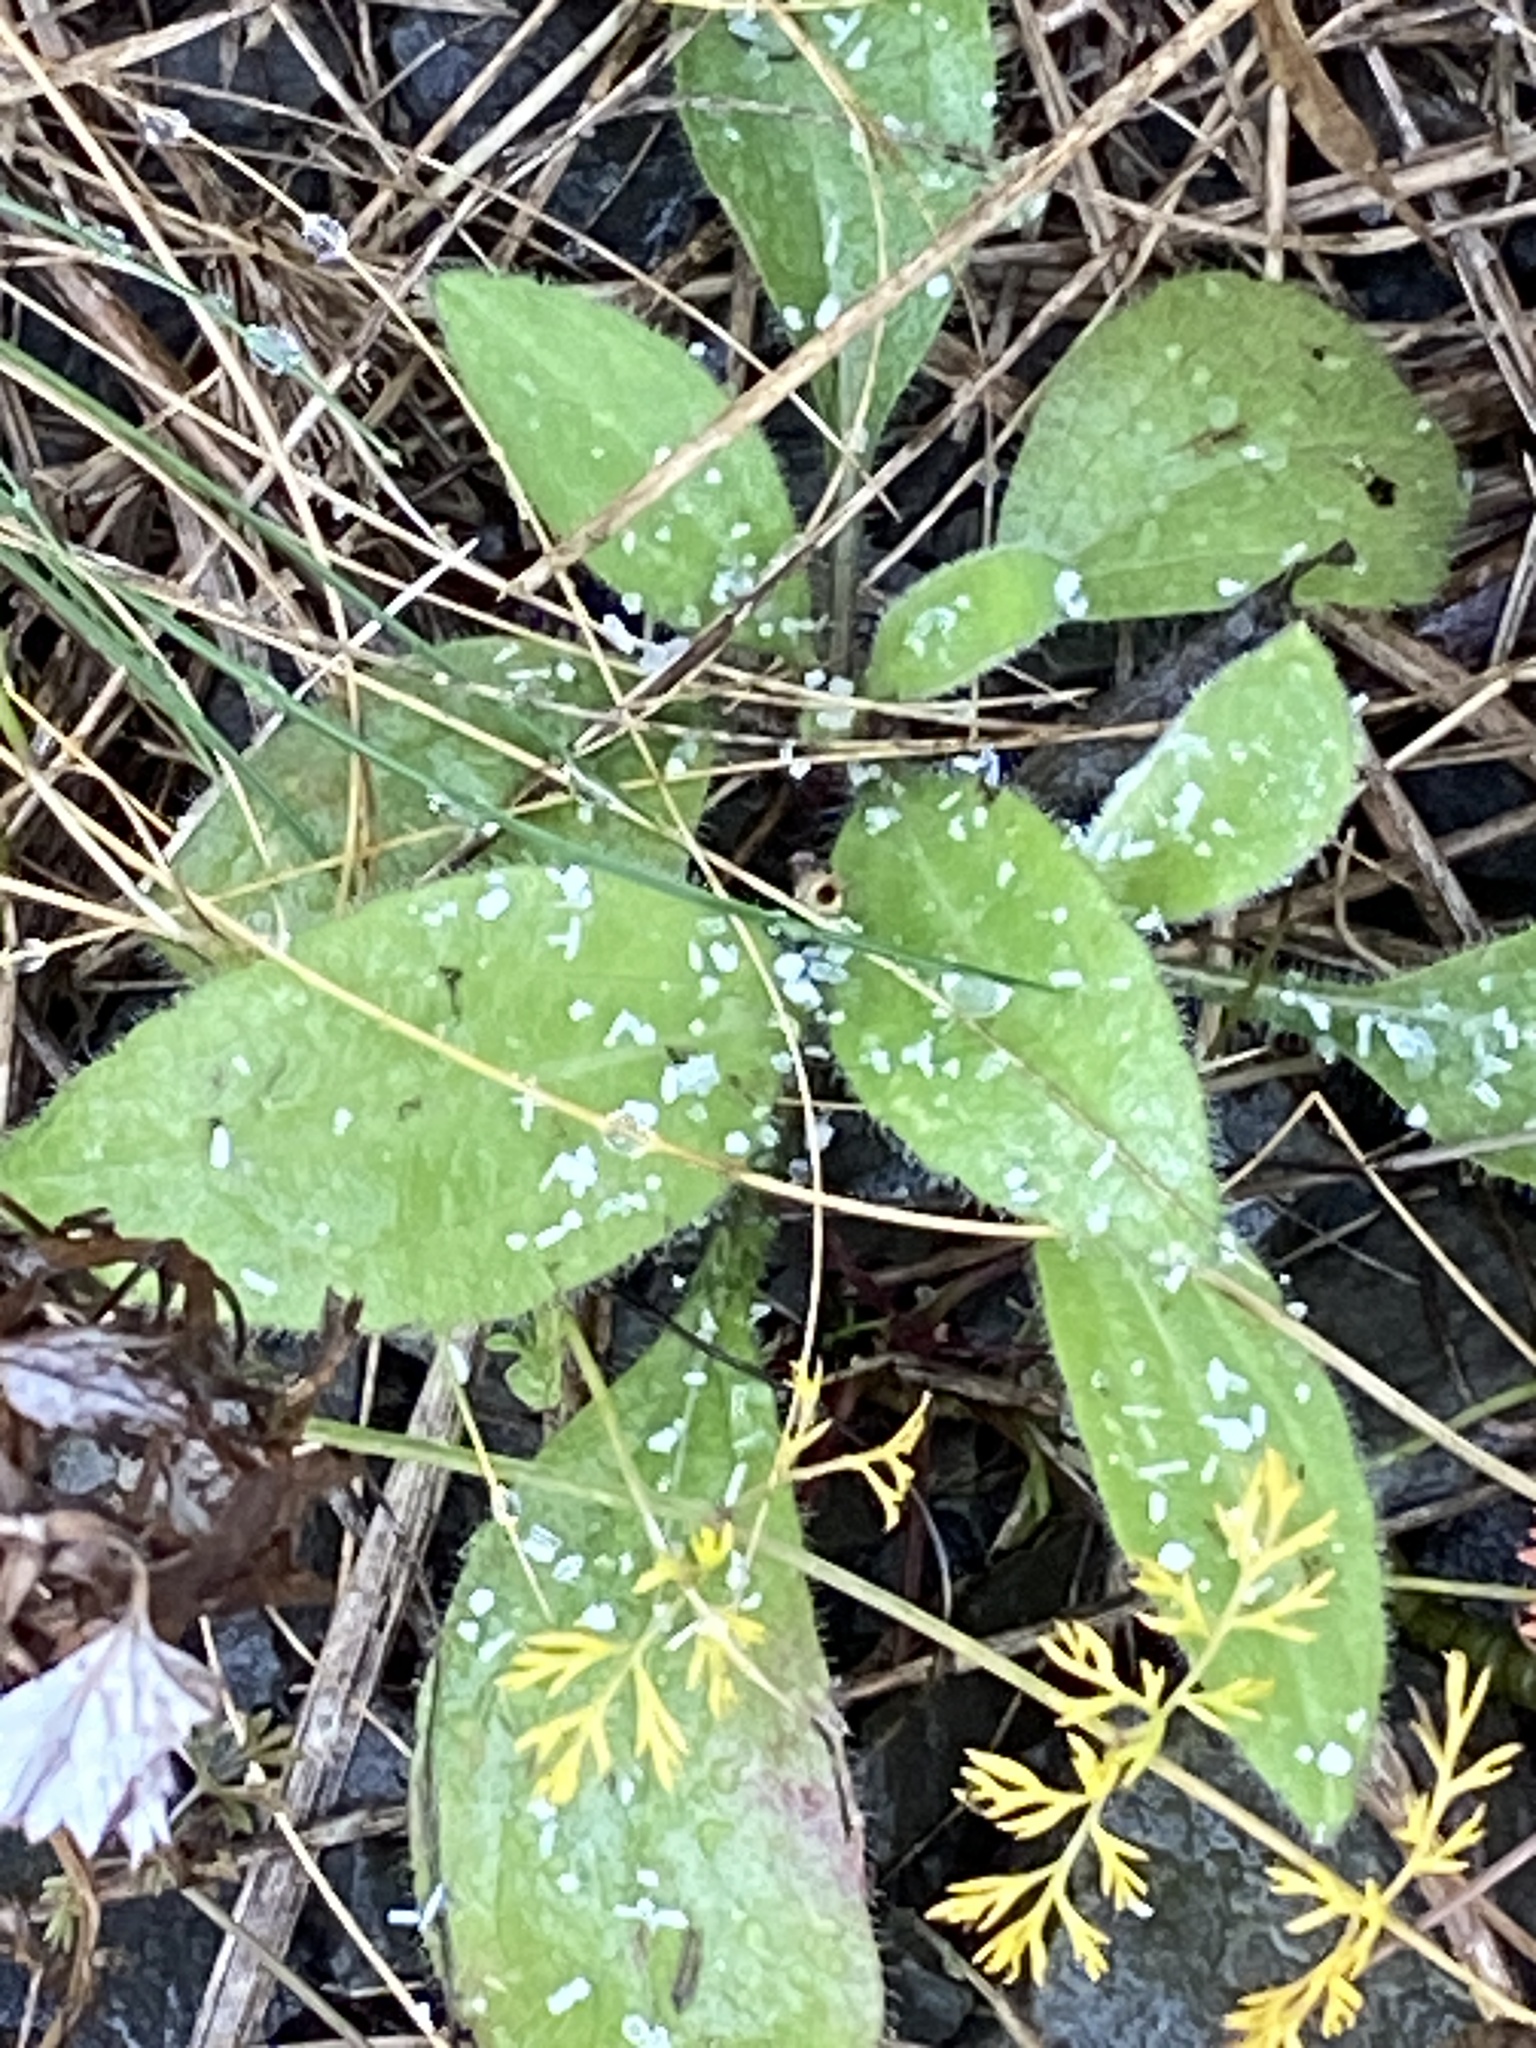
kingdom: Plantae
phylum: Tracheophyta
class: Magnoliopsida
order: Asterales
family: Asteraceae
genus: Rudbeckia
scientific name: Rudbeckia hirta
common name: Black-eyed-susan
